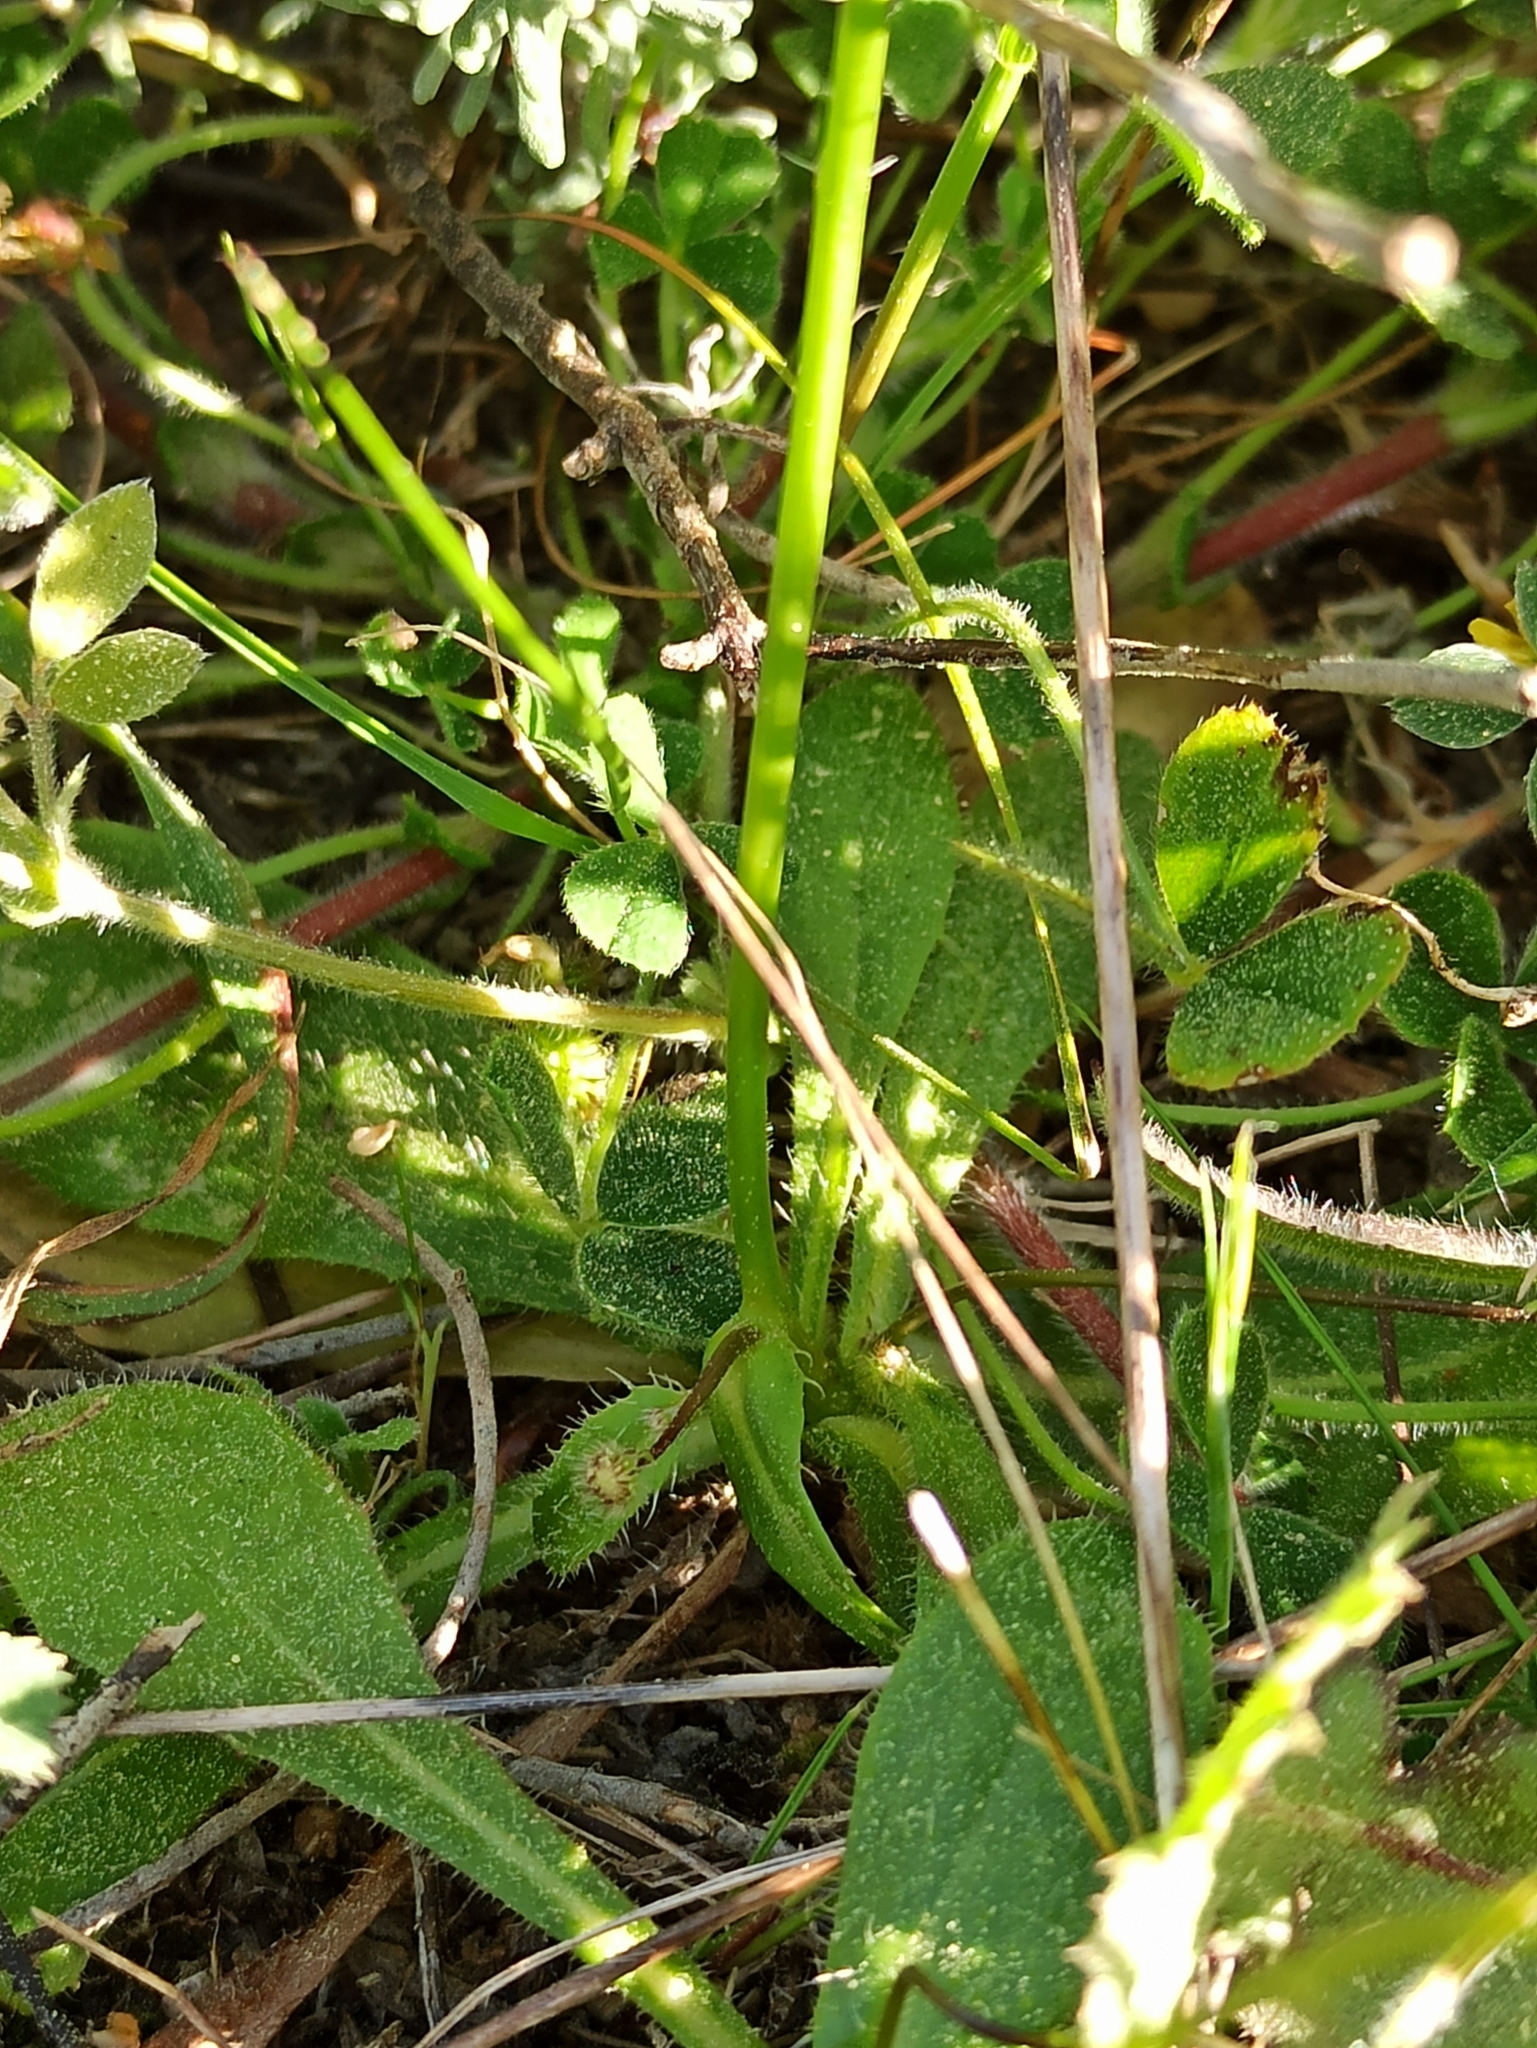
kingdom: Plantae
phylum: Tracheophyta
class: Magnoliopsida
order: Asterales
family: Asteraceae
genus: Achyrophorus
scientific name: Achyrophorus valdesii
